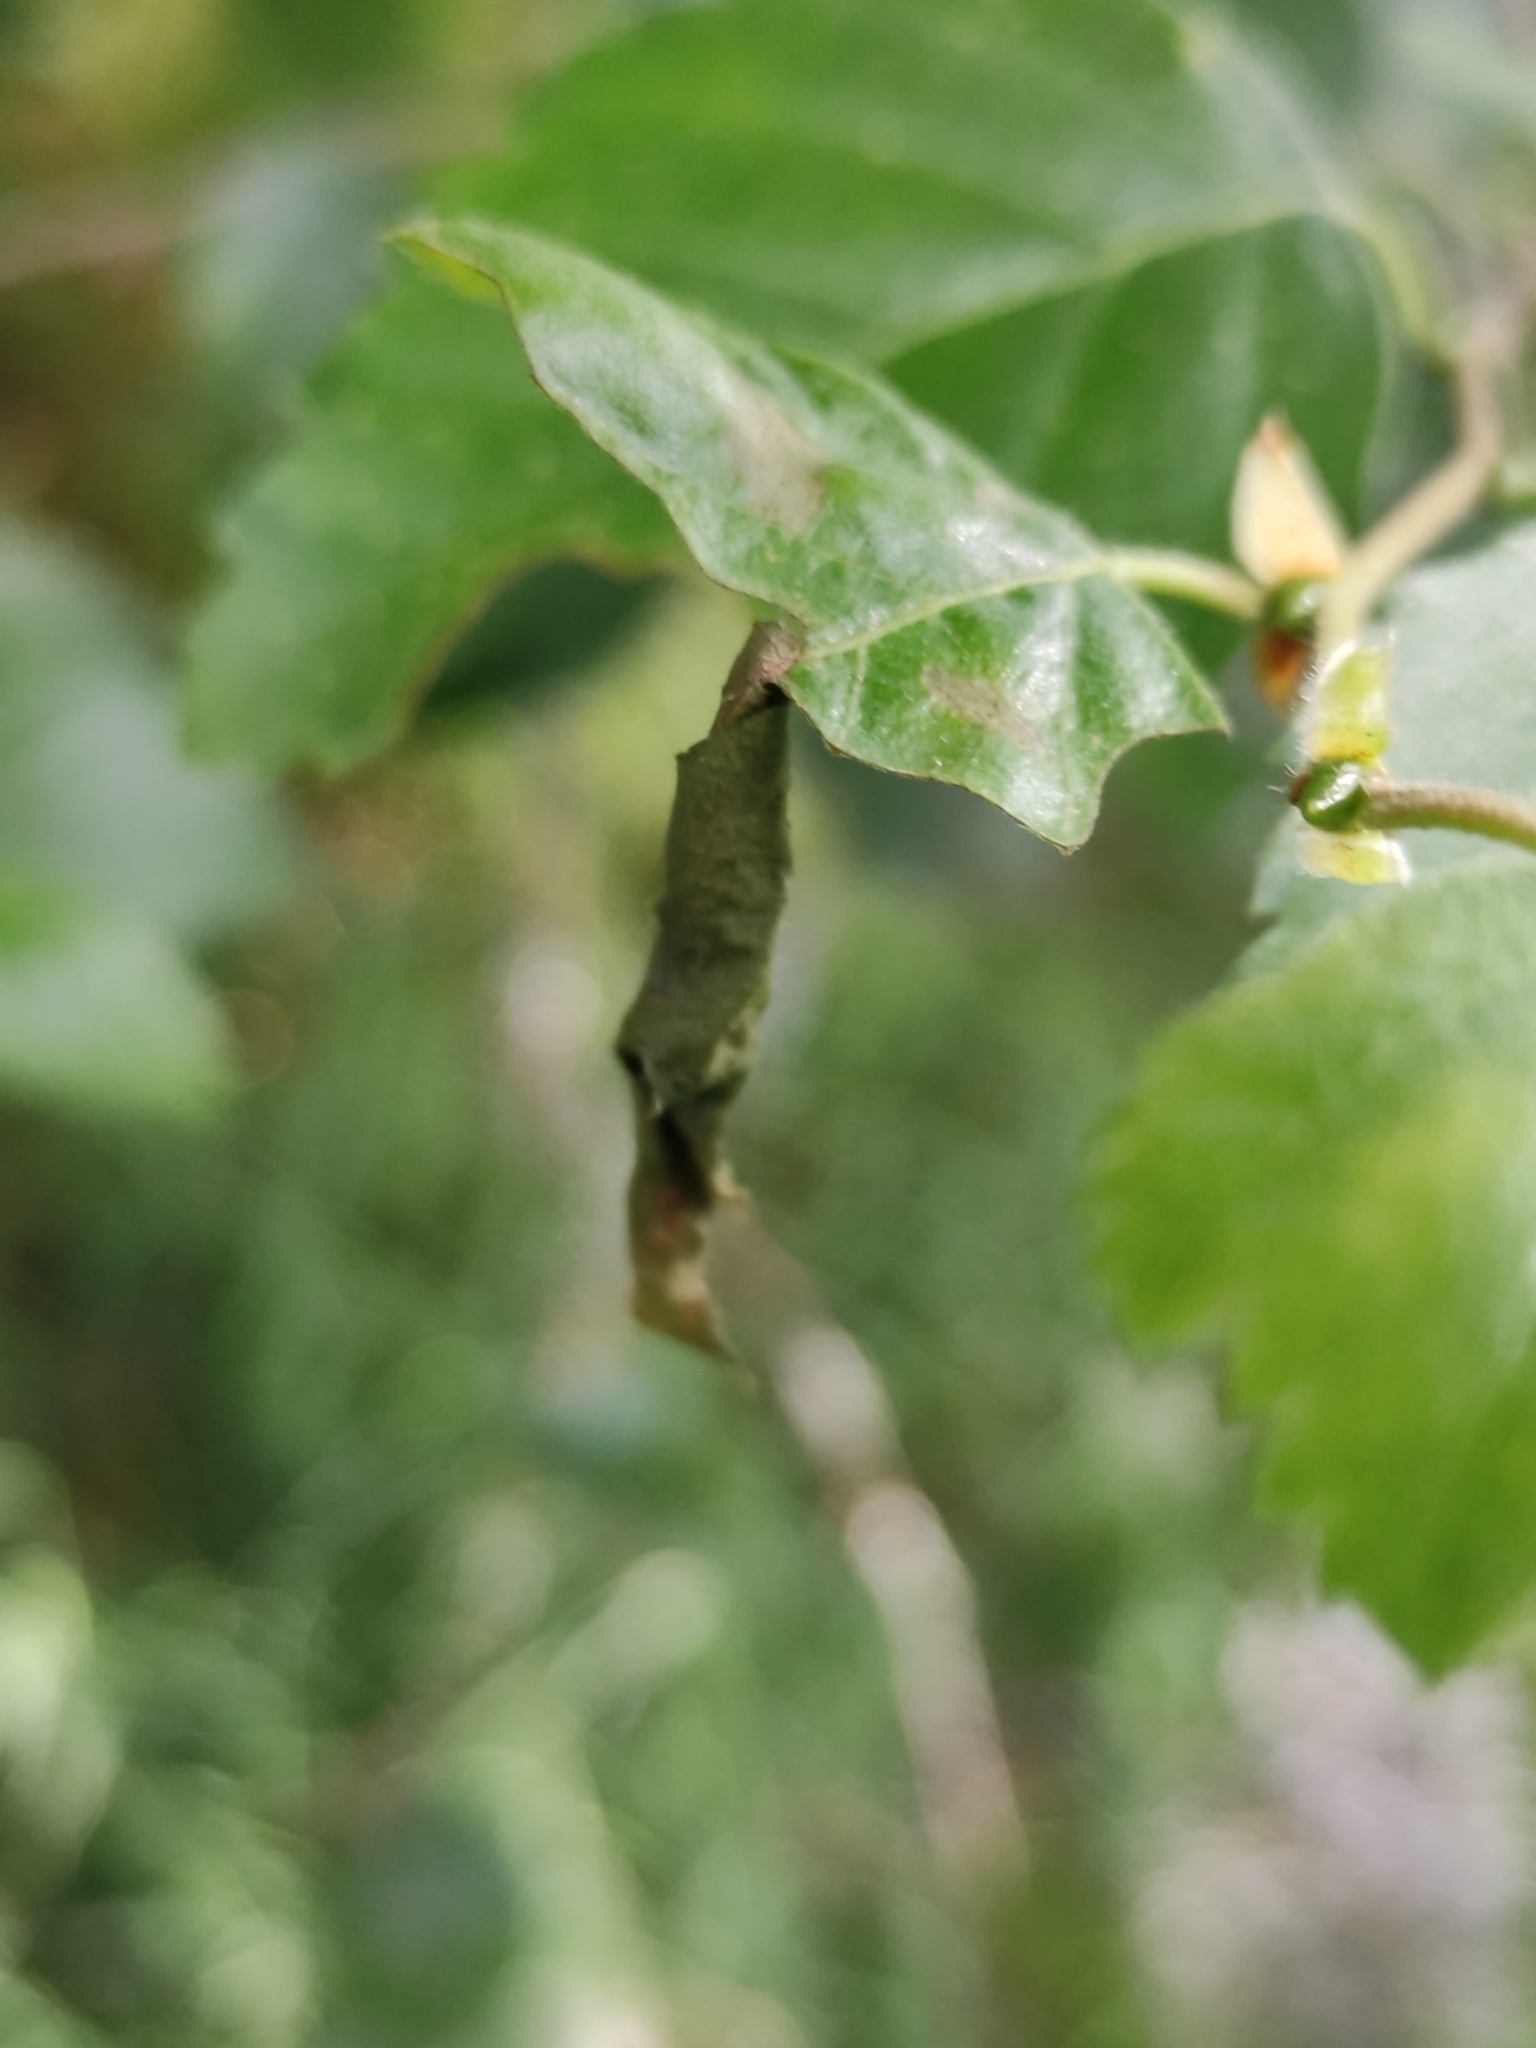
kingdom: Animalia
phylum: Arthropoda
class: Insecta
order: Coleoptera
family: Attelabidae
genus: Deporaus
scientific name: Deporaus betulae
